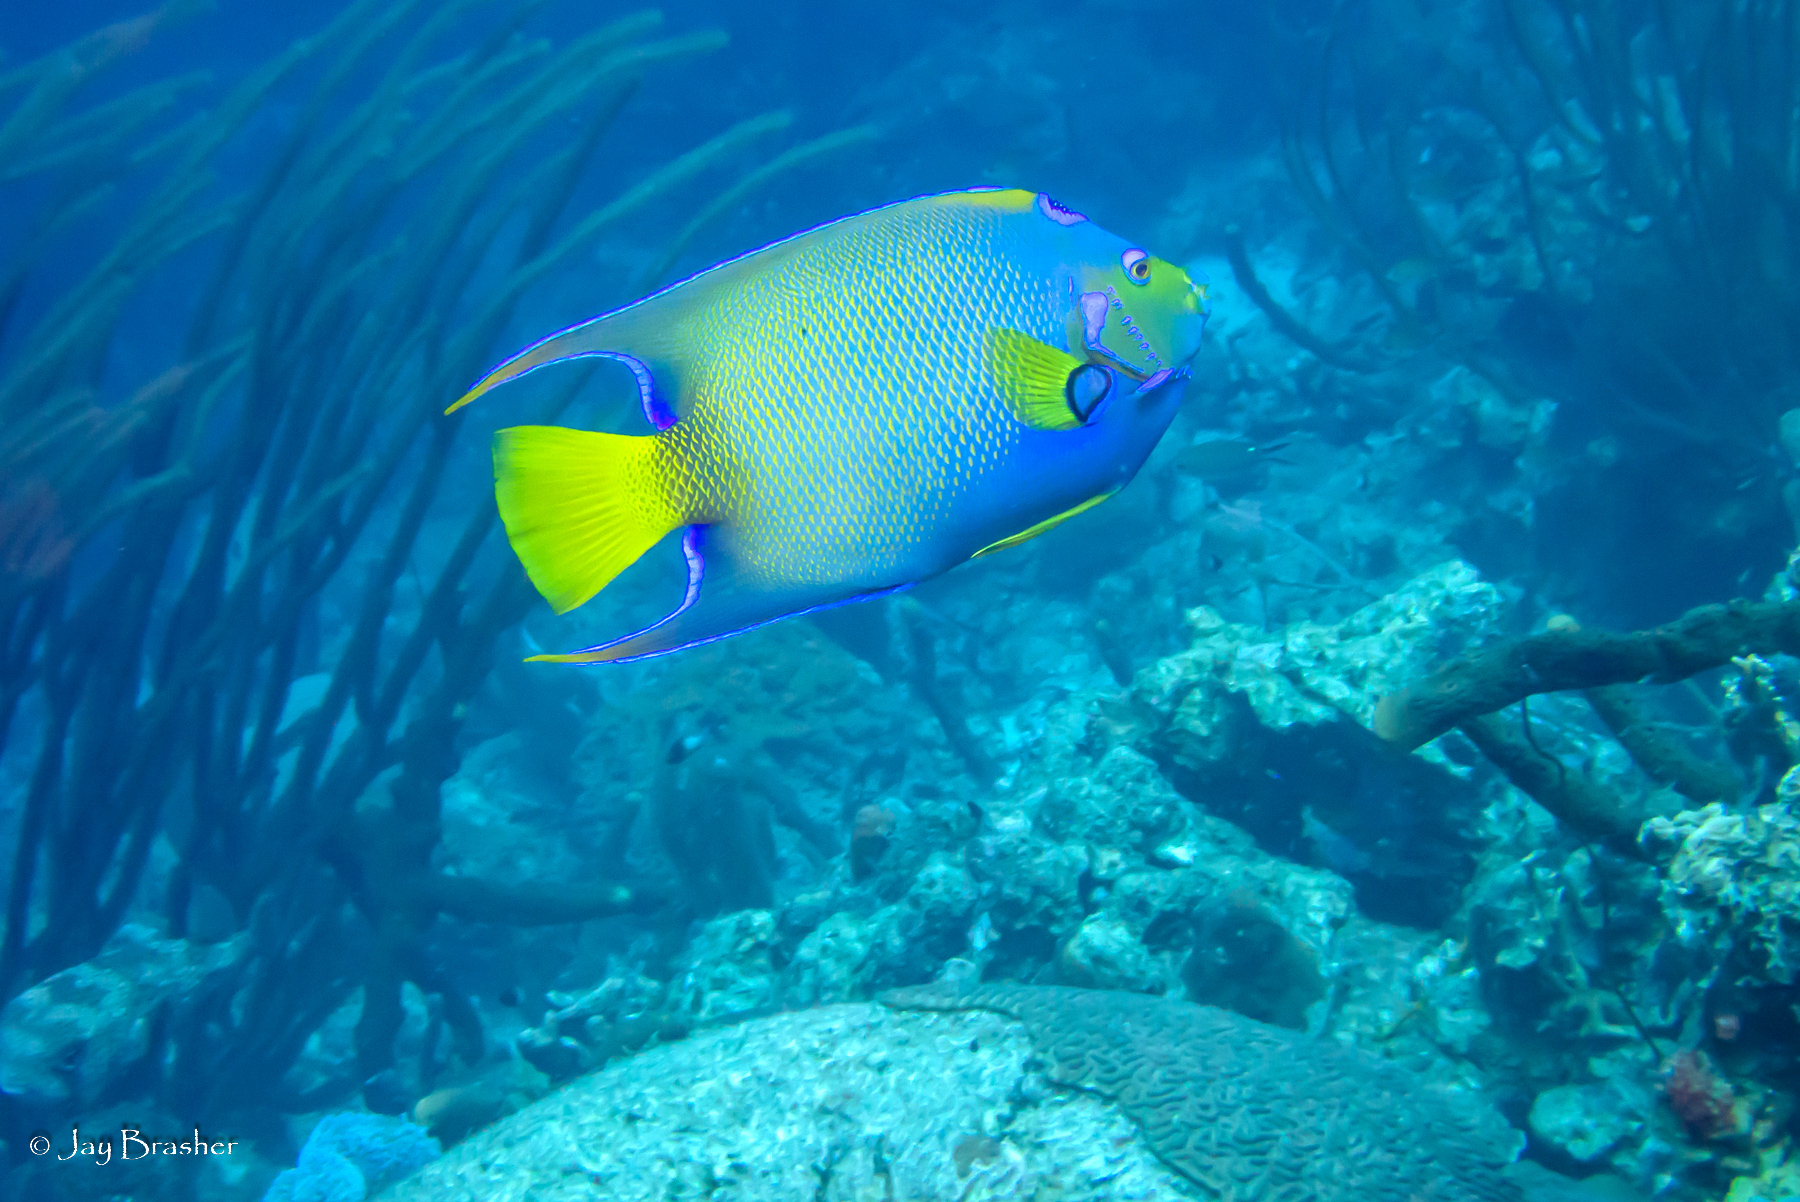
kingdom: Animalia
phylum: Chordata
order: Perciformes
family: Pomacanthidae
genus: Holacanthus
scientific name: Holacanthus ciliaris
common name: Queen angelfish
